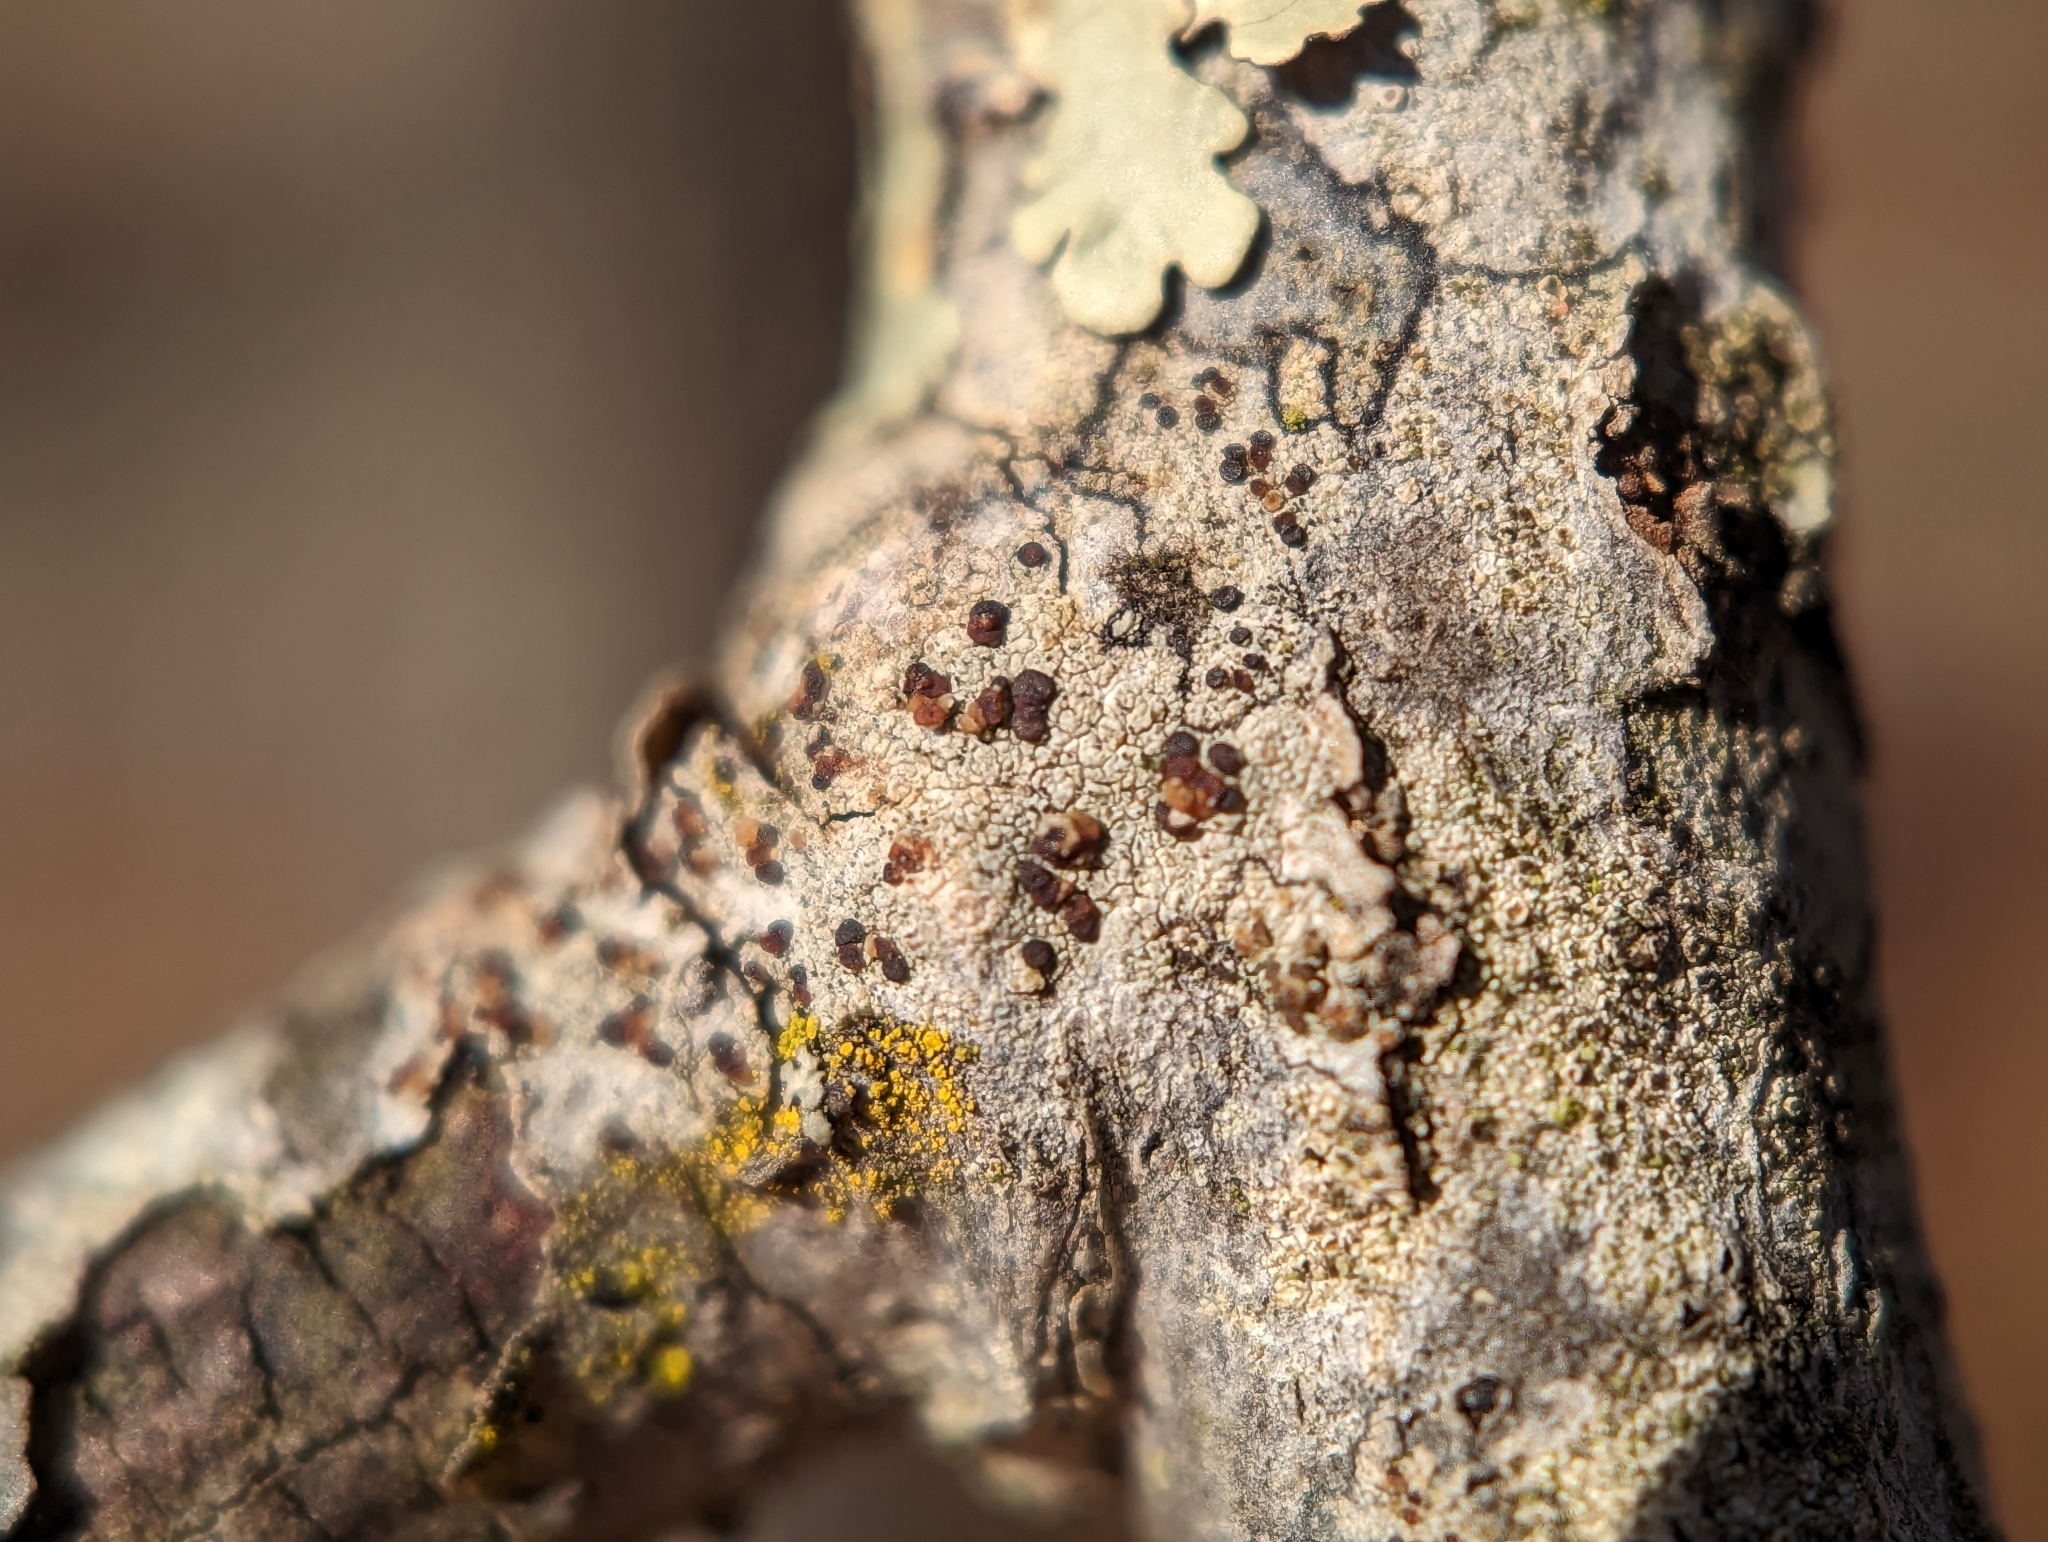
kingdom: Fungi
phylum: Ascomycota
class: Lecanoromycetes
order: Lecanorales
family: Lecanoraceae
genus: Traponora
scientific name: Traponora varians
